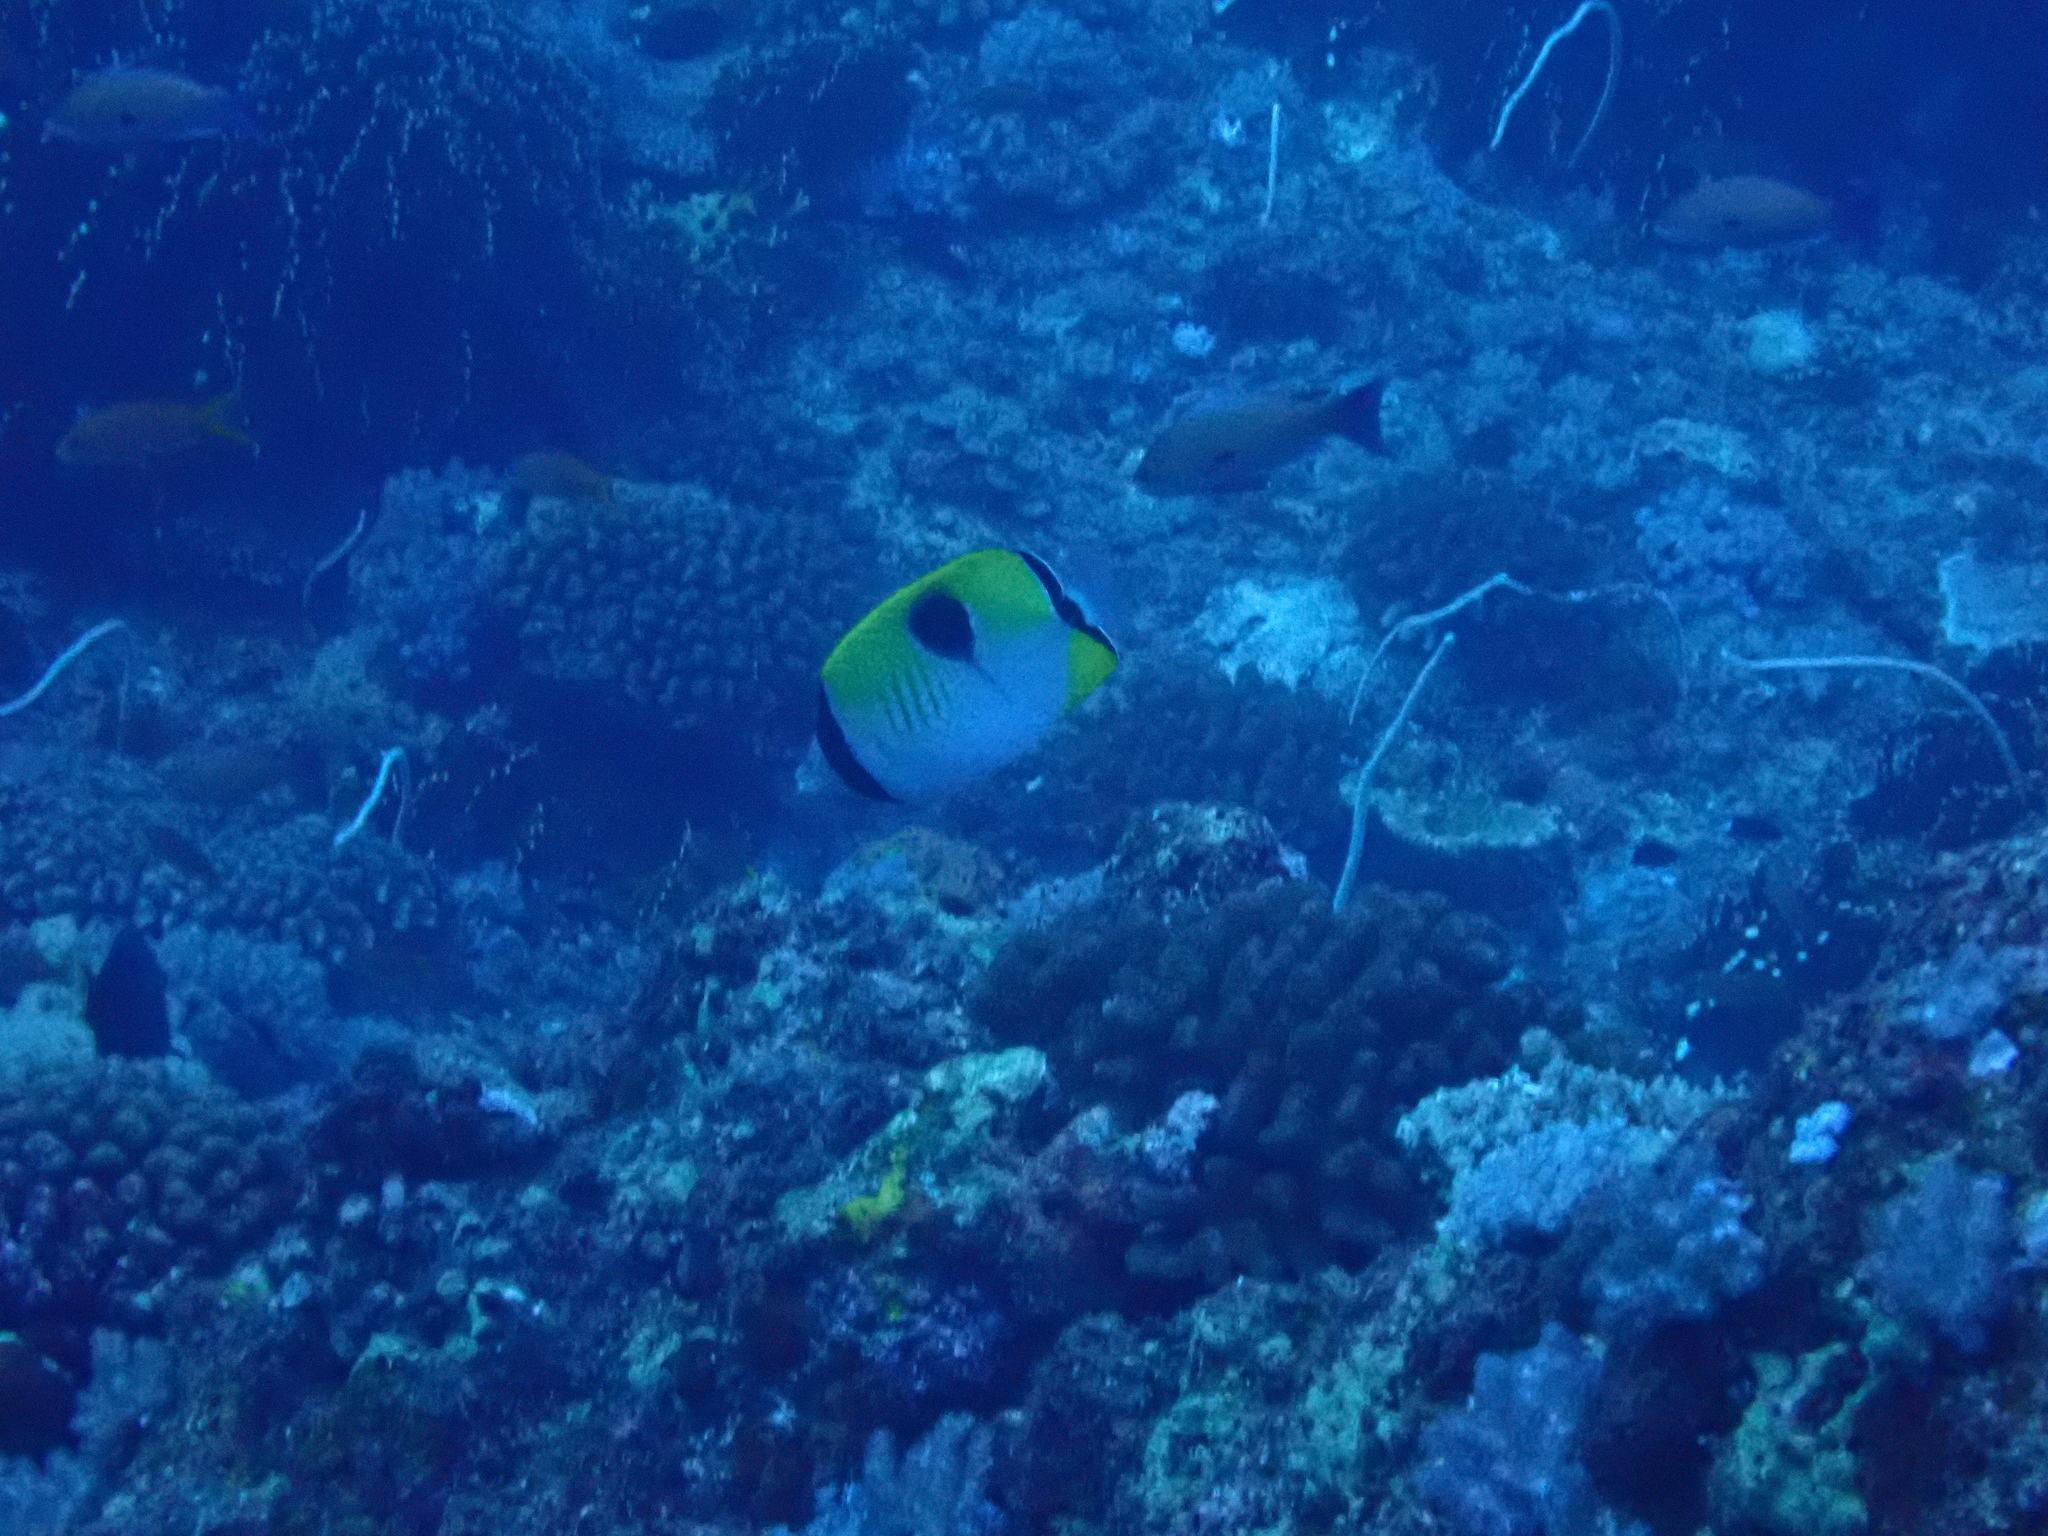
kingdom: Animalia
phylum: Chordata
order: Perciformes
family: Chaetodontidae
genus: Chaetodon
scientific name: Chaetodon unimaculatus
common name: Teardrop butterflyfish
